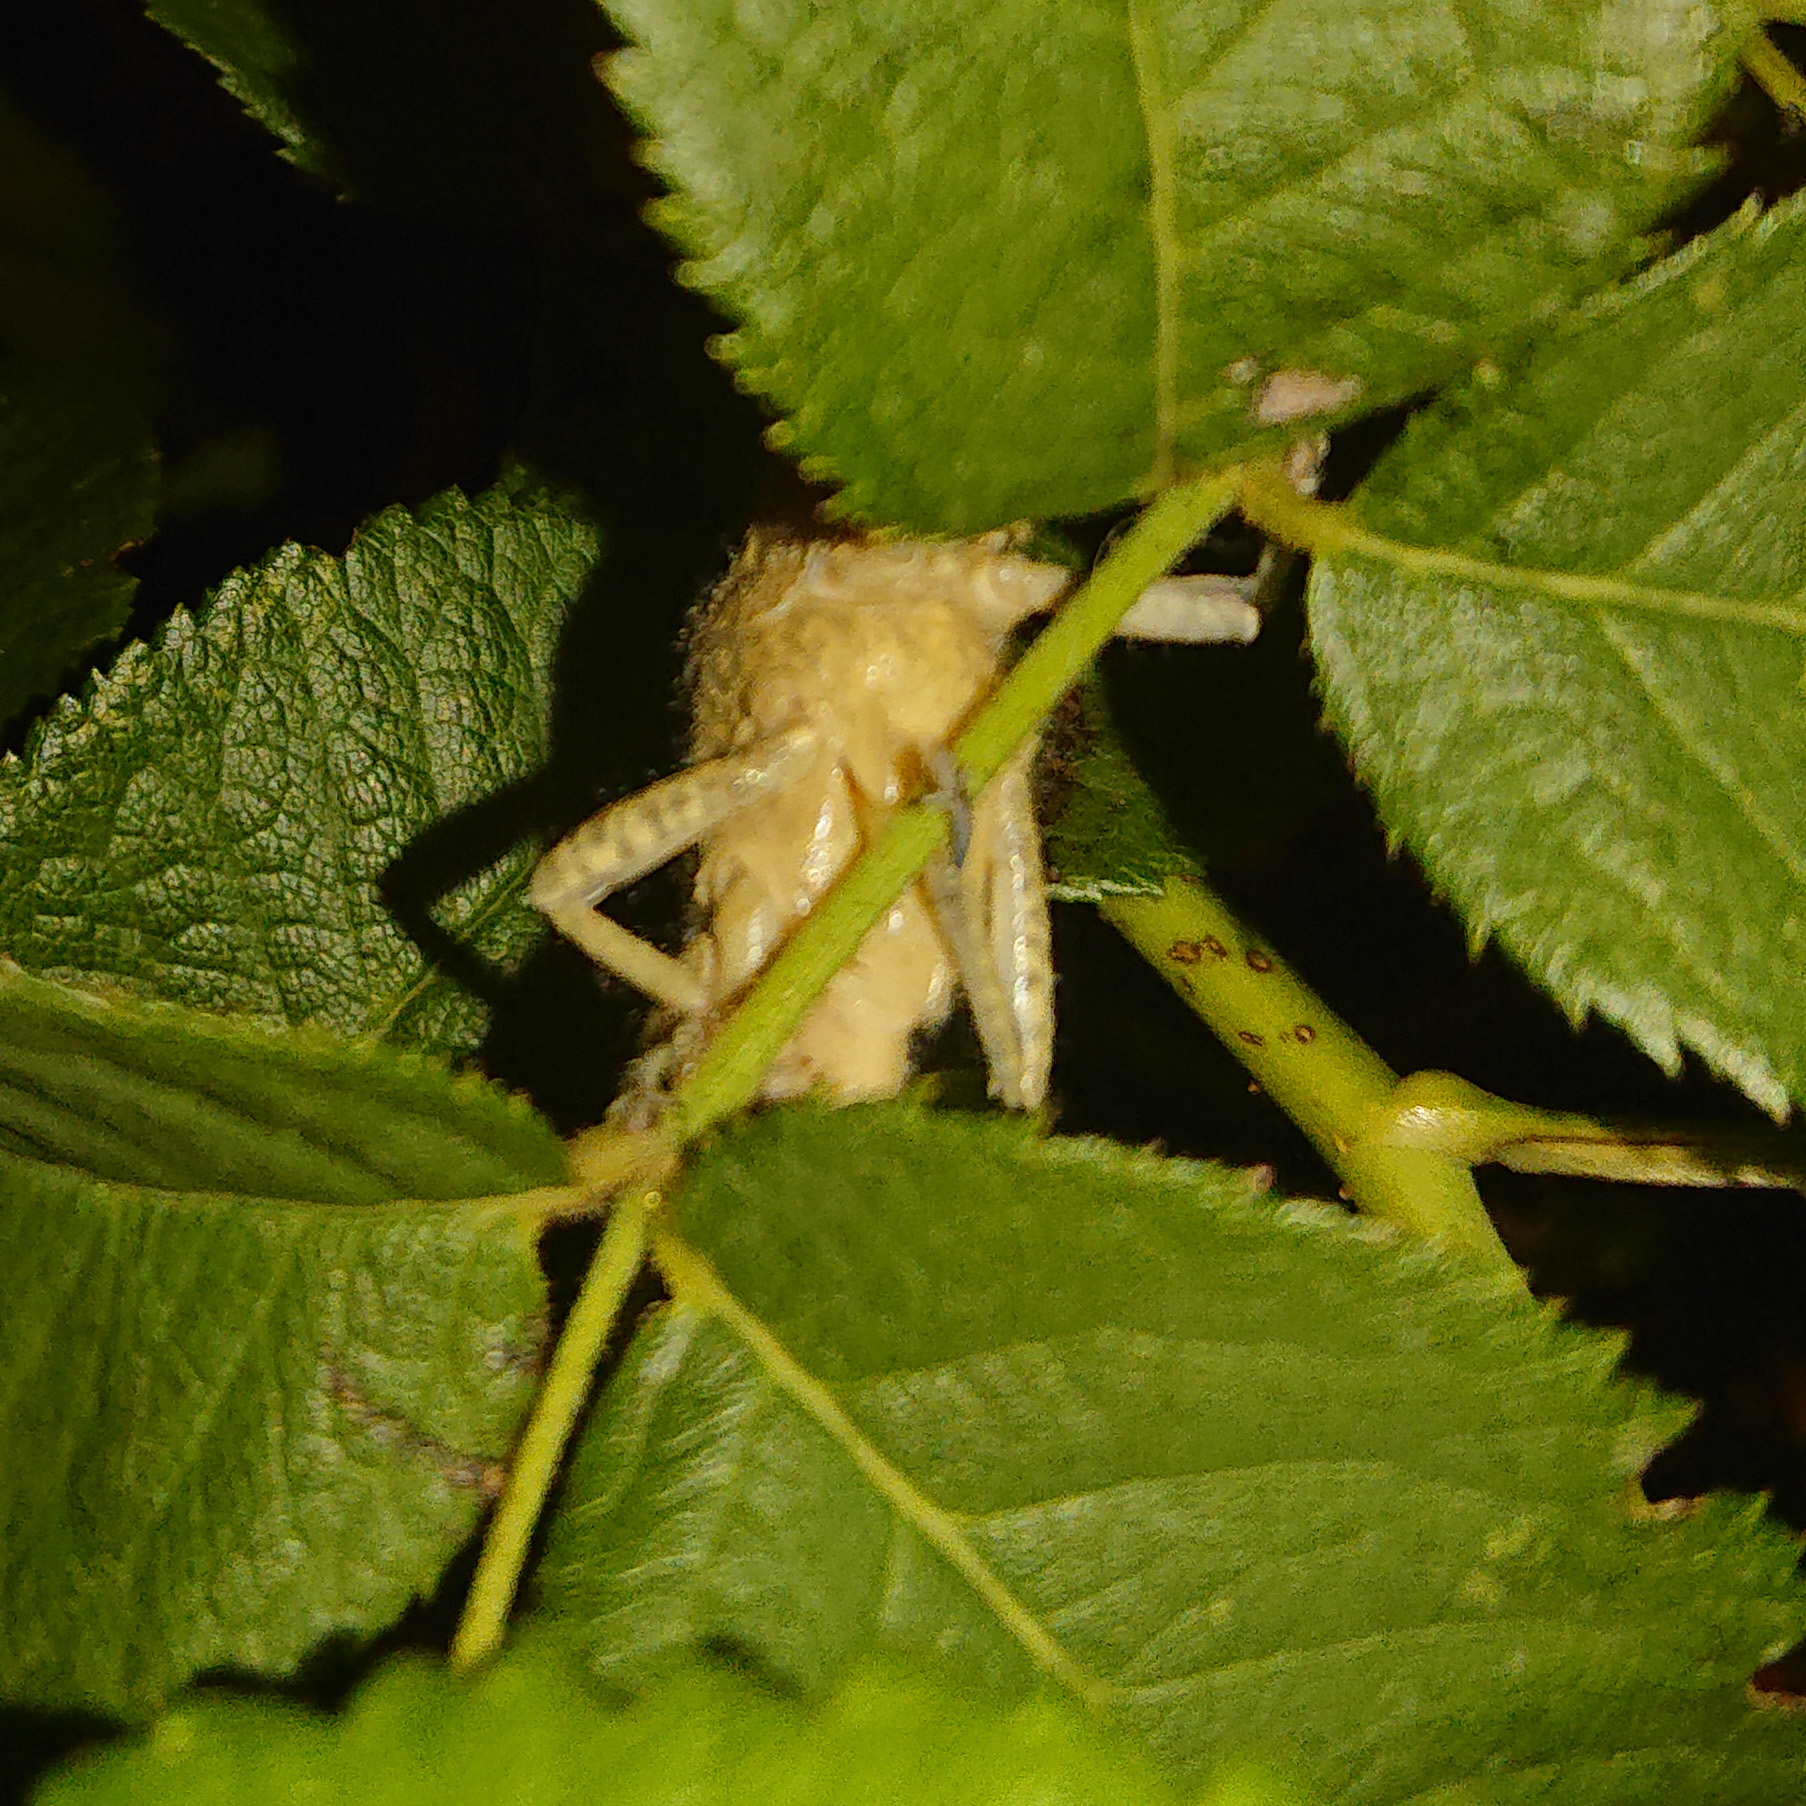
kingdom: Animalia
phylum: Arthropoda
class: Insecta
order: Orthoptera
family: Acrididae
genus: Anacridium
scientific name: Anacridium aegyptium
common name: Egyptian grasshopper
